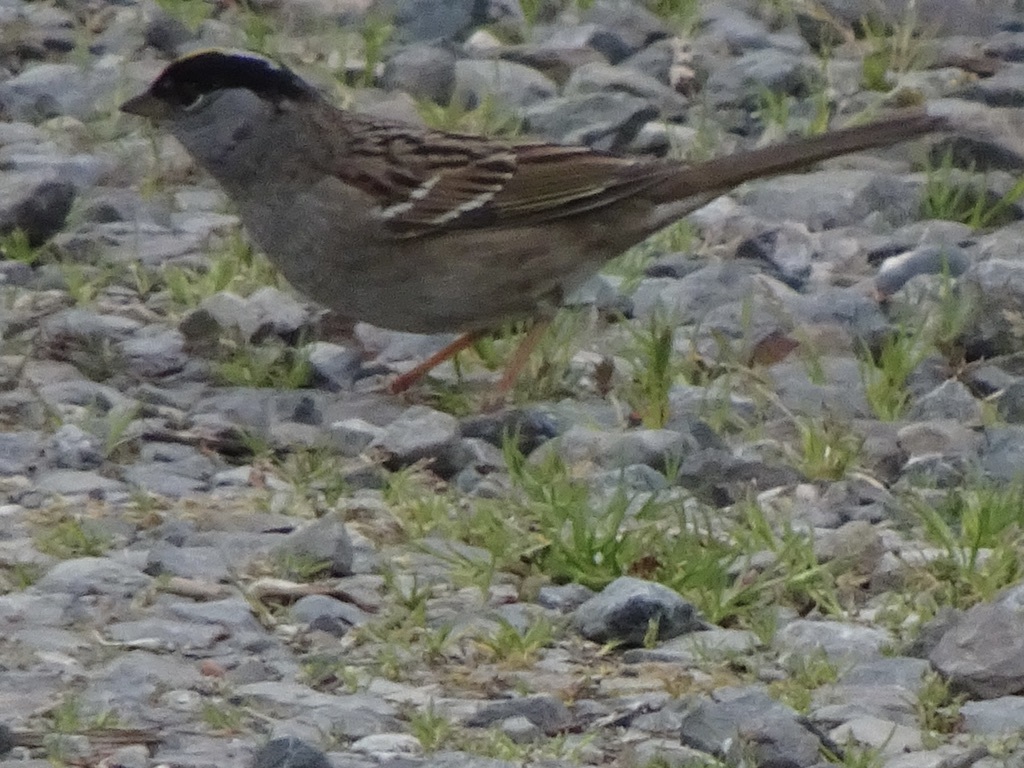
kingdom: Animalia
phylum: Chordata
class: Aves
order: Passeriformes
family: Passerellidae
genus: Zonotrichia
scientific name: Zonotrichia atricapilla
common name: Golden-crowned sparrow
